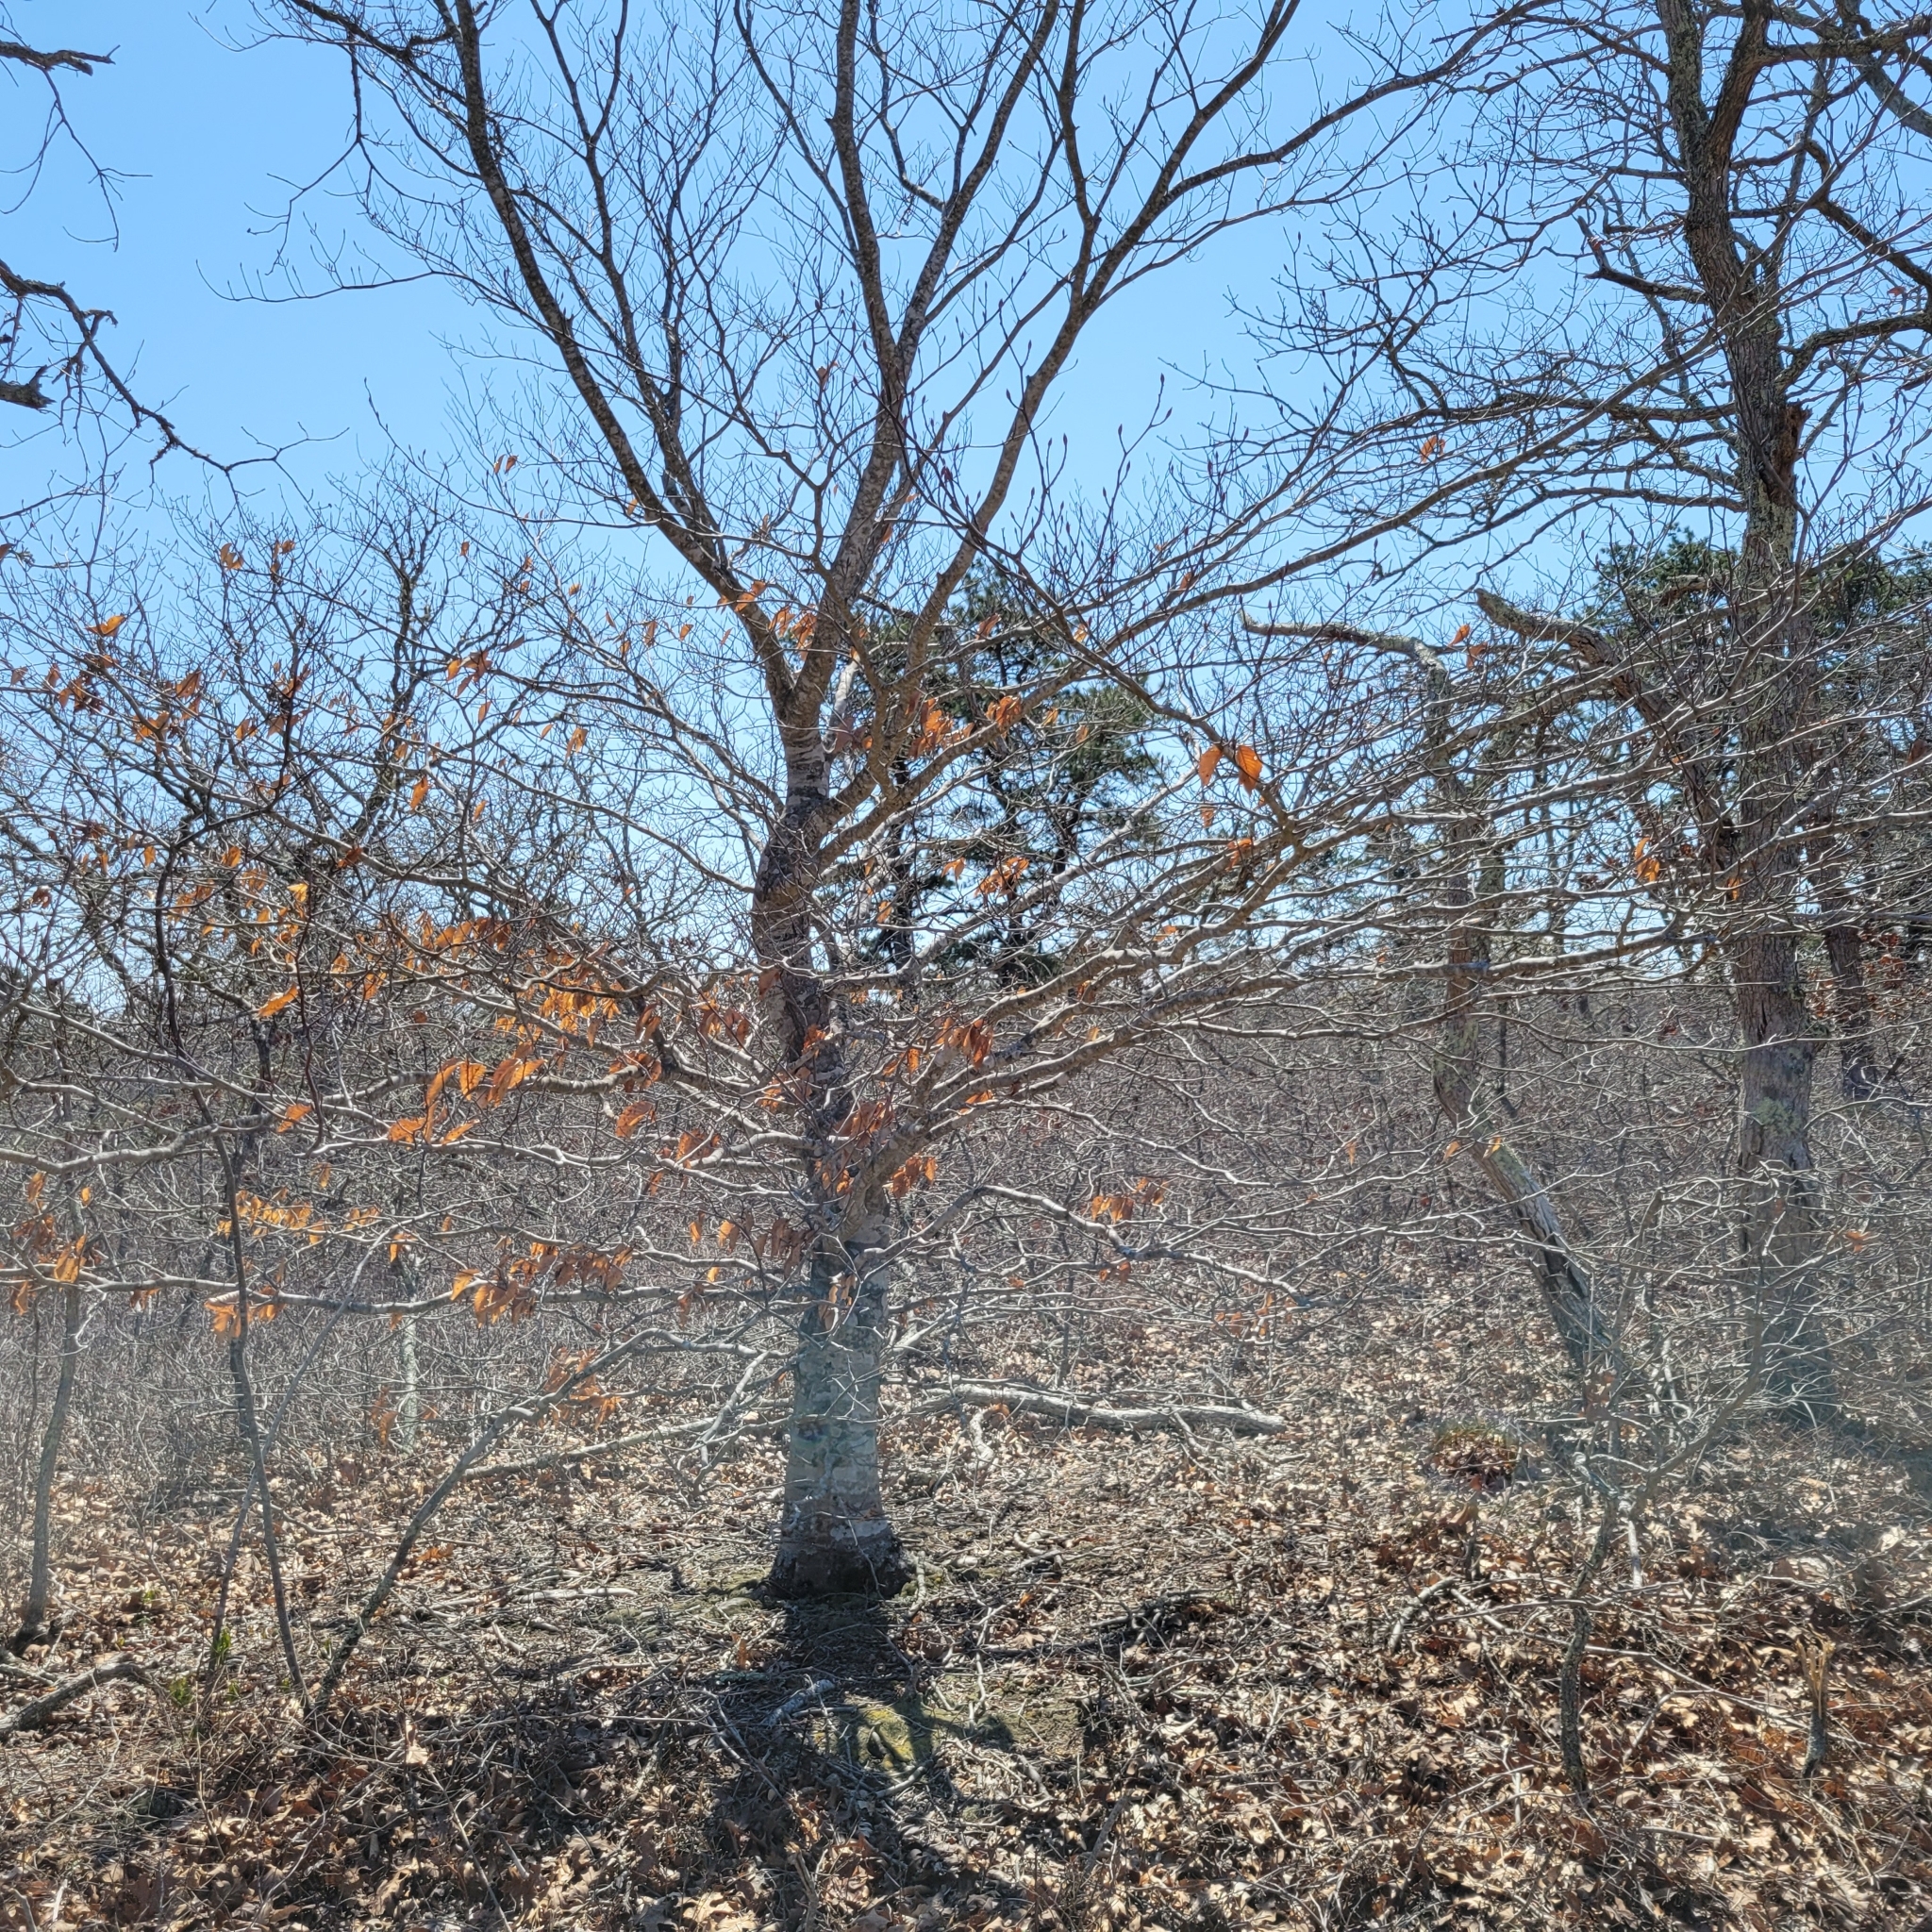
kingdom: Plantae
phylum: Tracheophyta
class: Magnoliopsida
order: Fagales
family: Fagaceae
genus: Fagus
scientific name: Fagus grandifolia
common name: American beech
